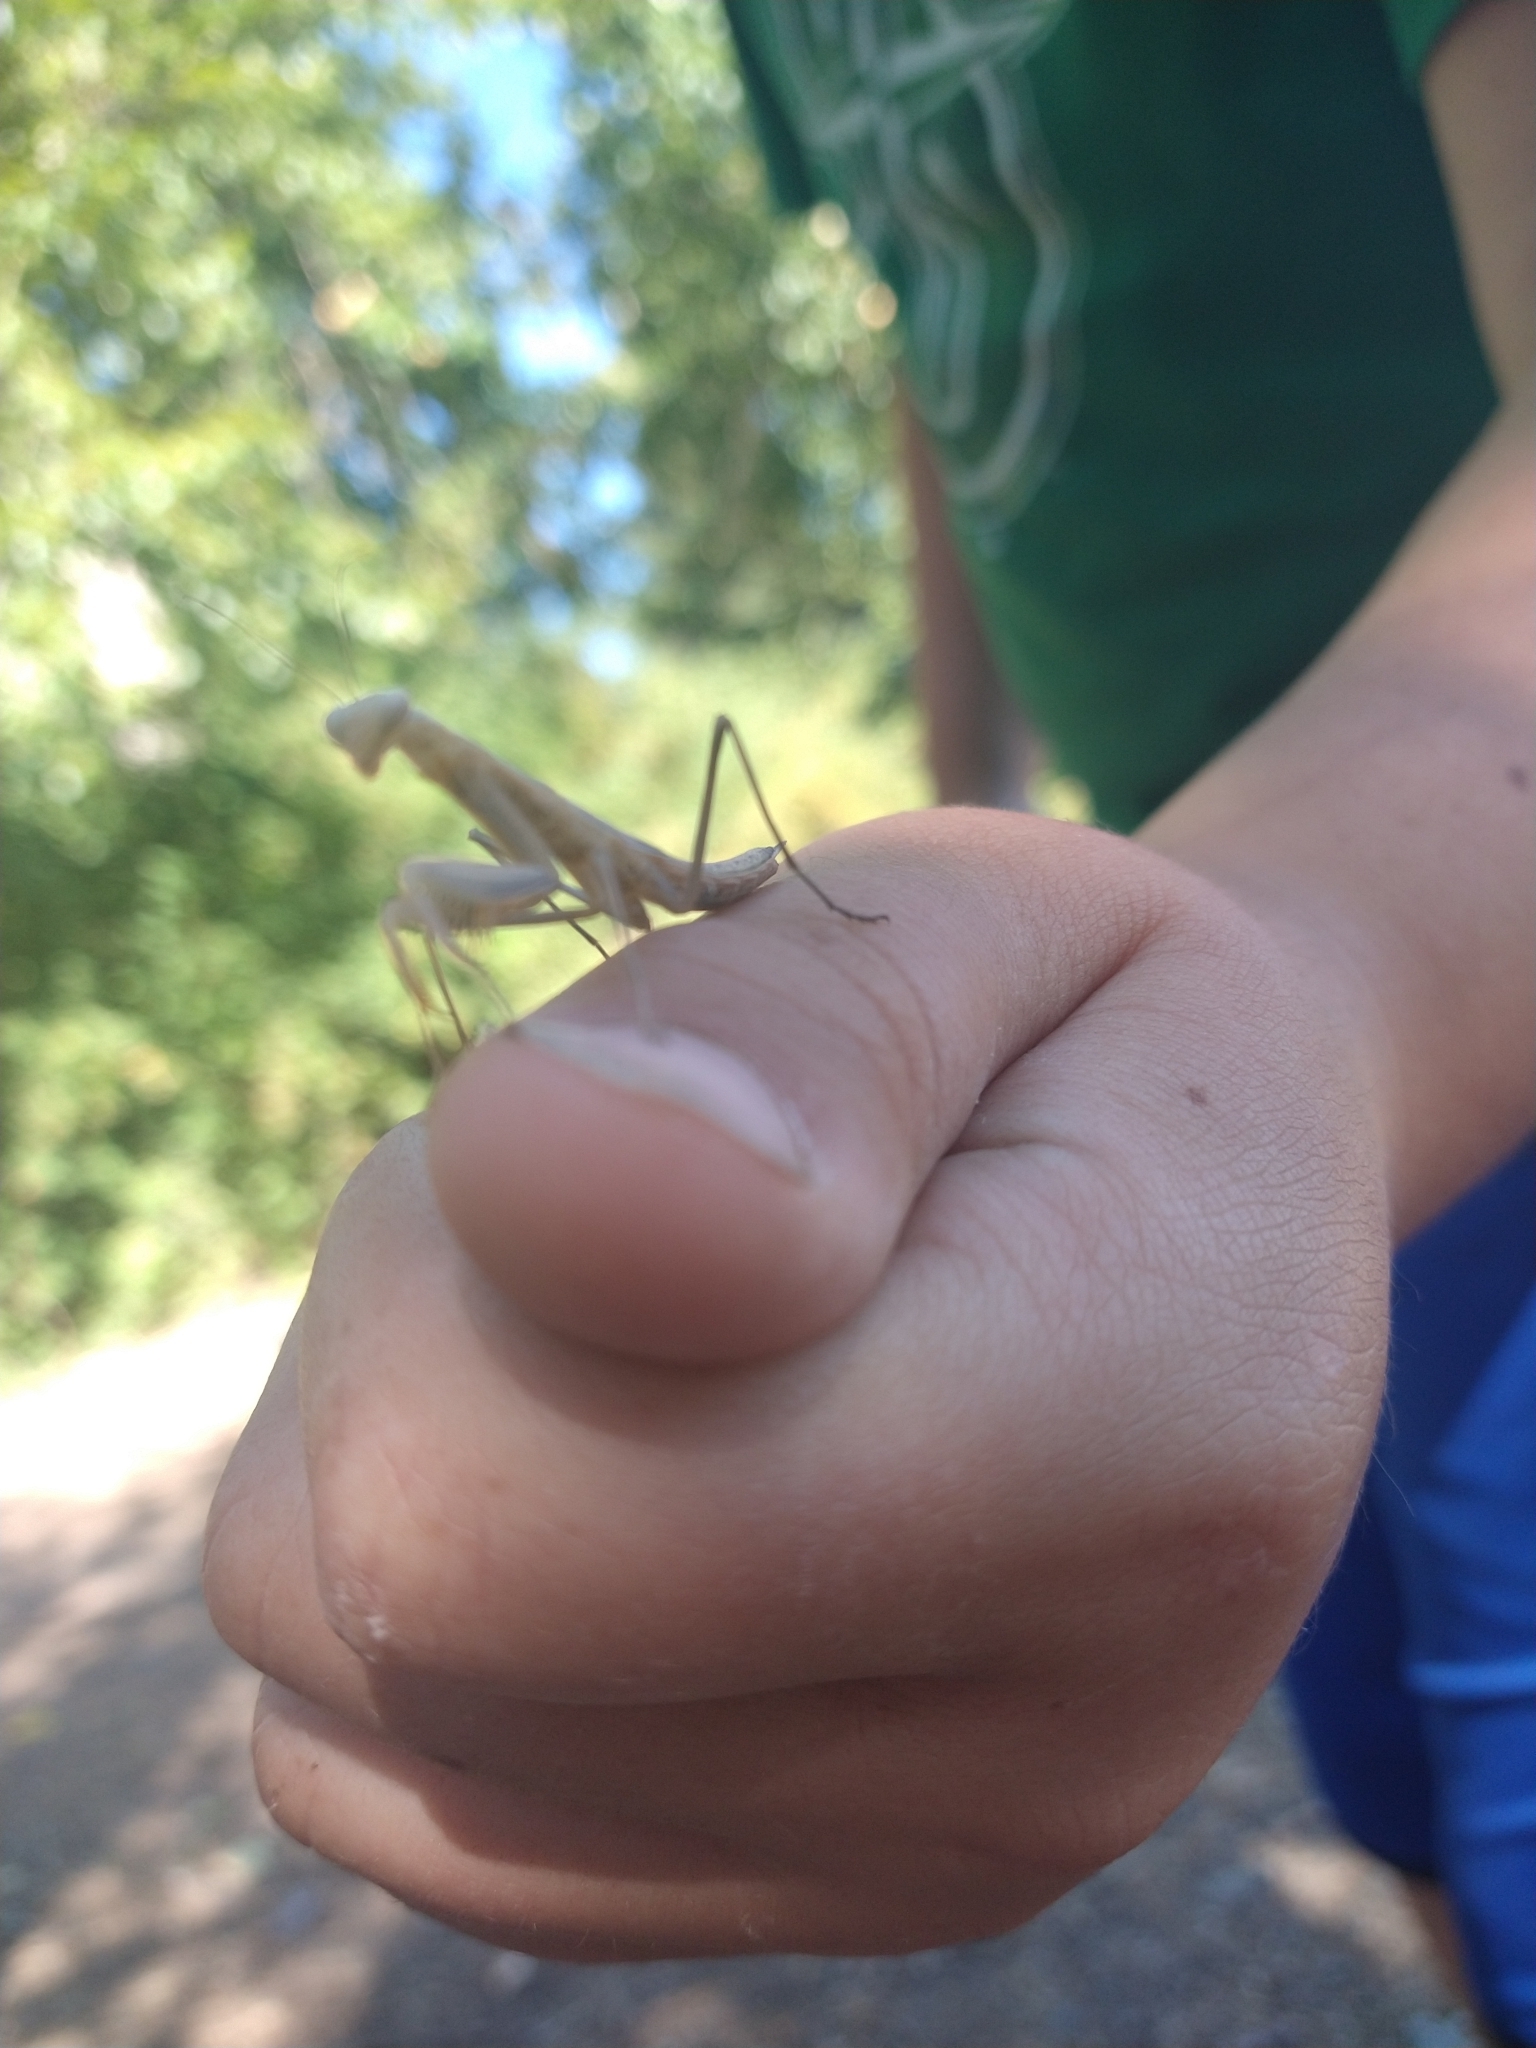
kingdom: Animalia
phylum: Arthropoda
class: Insecta
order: Mantodea
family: Mantidae
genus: Mantis
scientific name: Mantis religiosa
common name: Praying mantis
